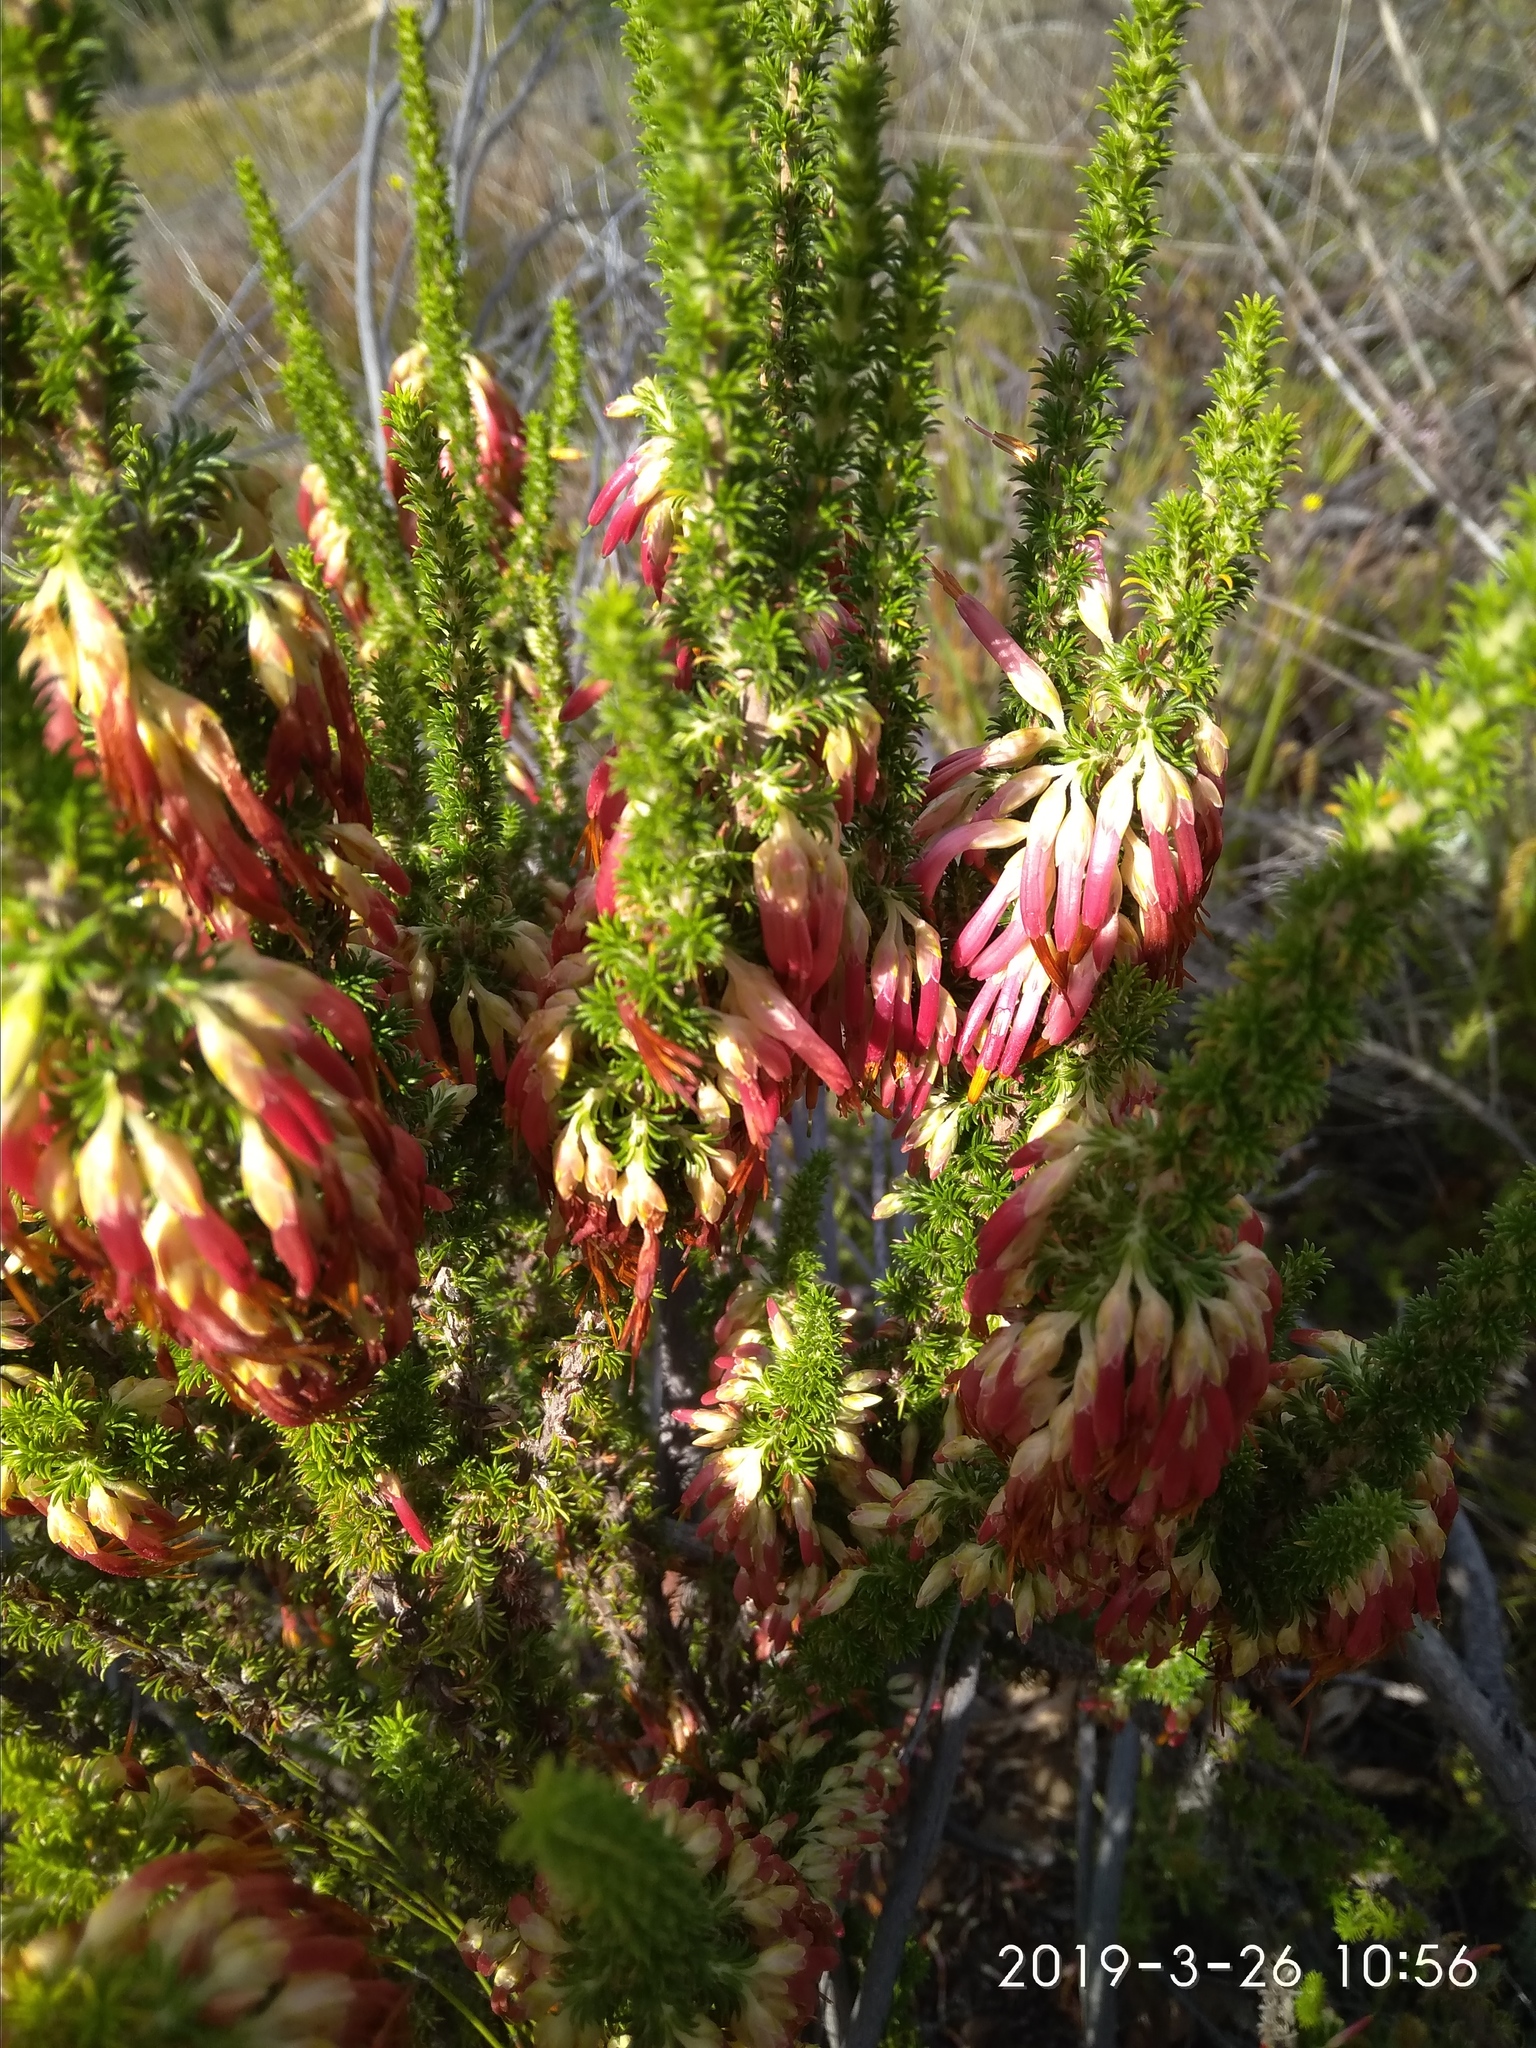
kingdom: Plantae
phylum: Tracheophyta
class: Magnoliopsida
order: Ericales
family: Ericaceae
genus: Erica
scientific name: Erica coccinea
